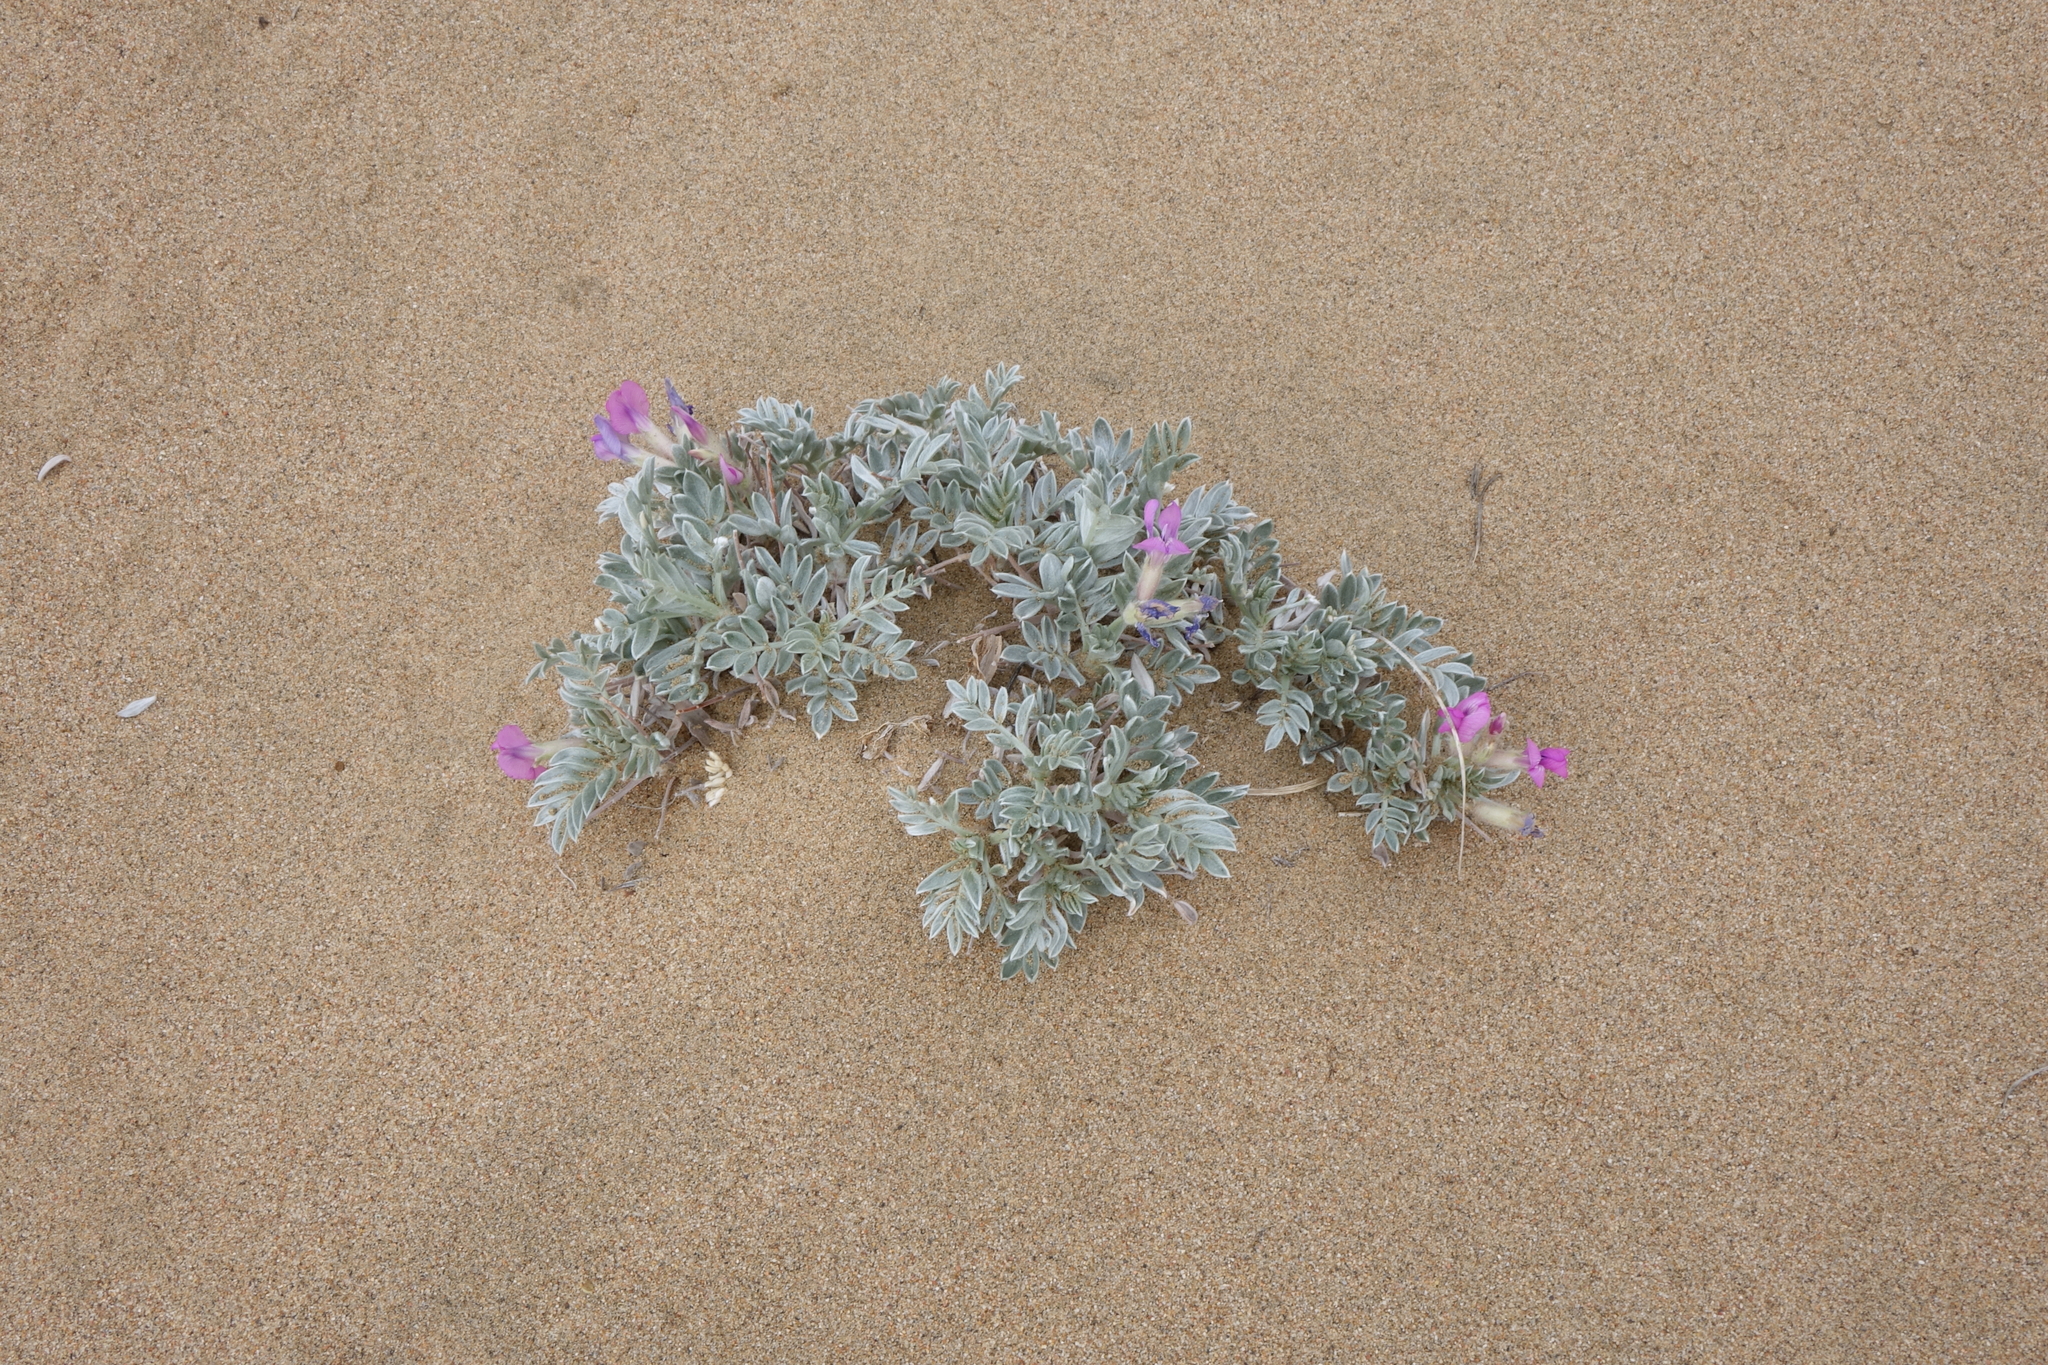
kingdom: Plantae
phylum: Tracheophyta
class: Magnoliopsida
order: Fabales
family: Fabaceae
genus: Oxytropis
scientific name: Oxytropis tragacanthoides
